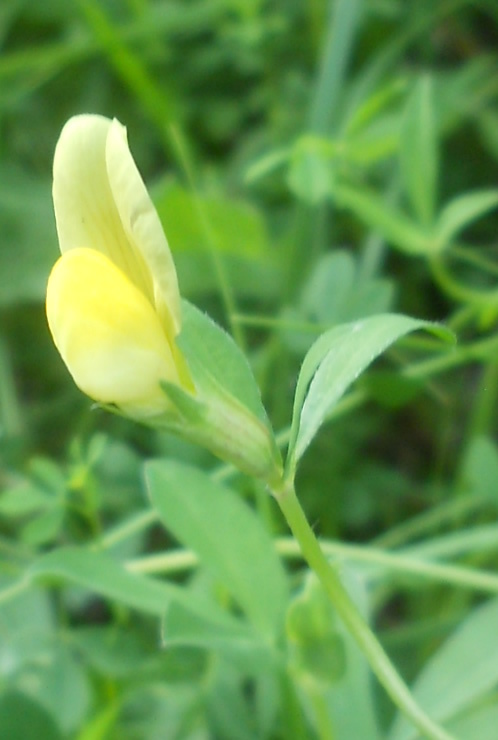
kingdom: Plantae
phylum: Tracheophyta
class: Magnoliopsida
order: Fabales
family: Fabaceae
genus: Lotus
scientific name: Lotus maritimus
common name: Dragon's-teeth
